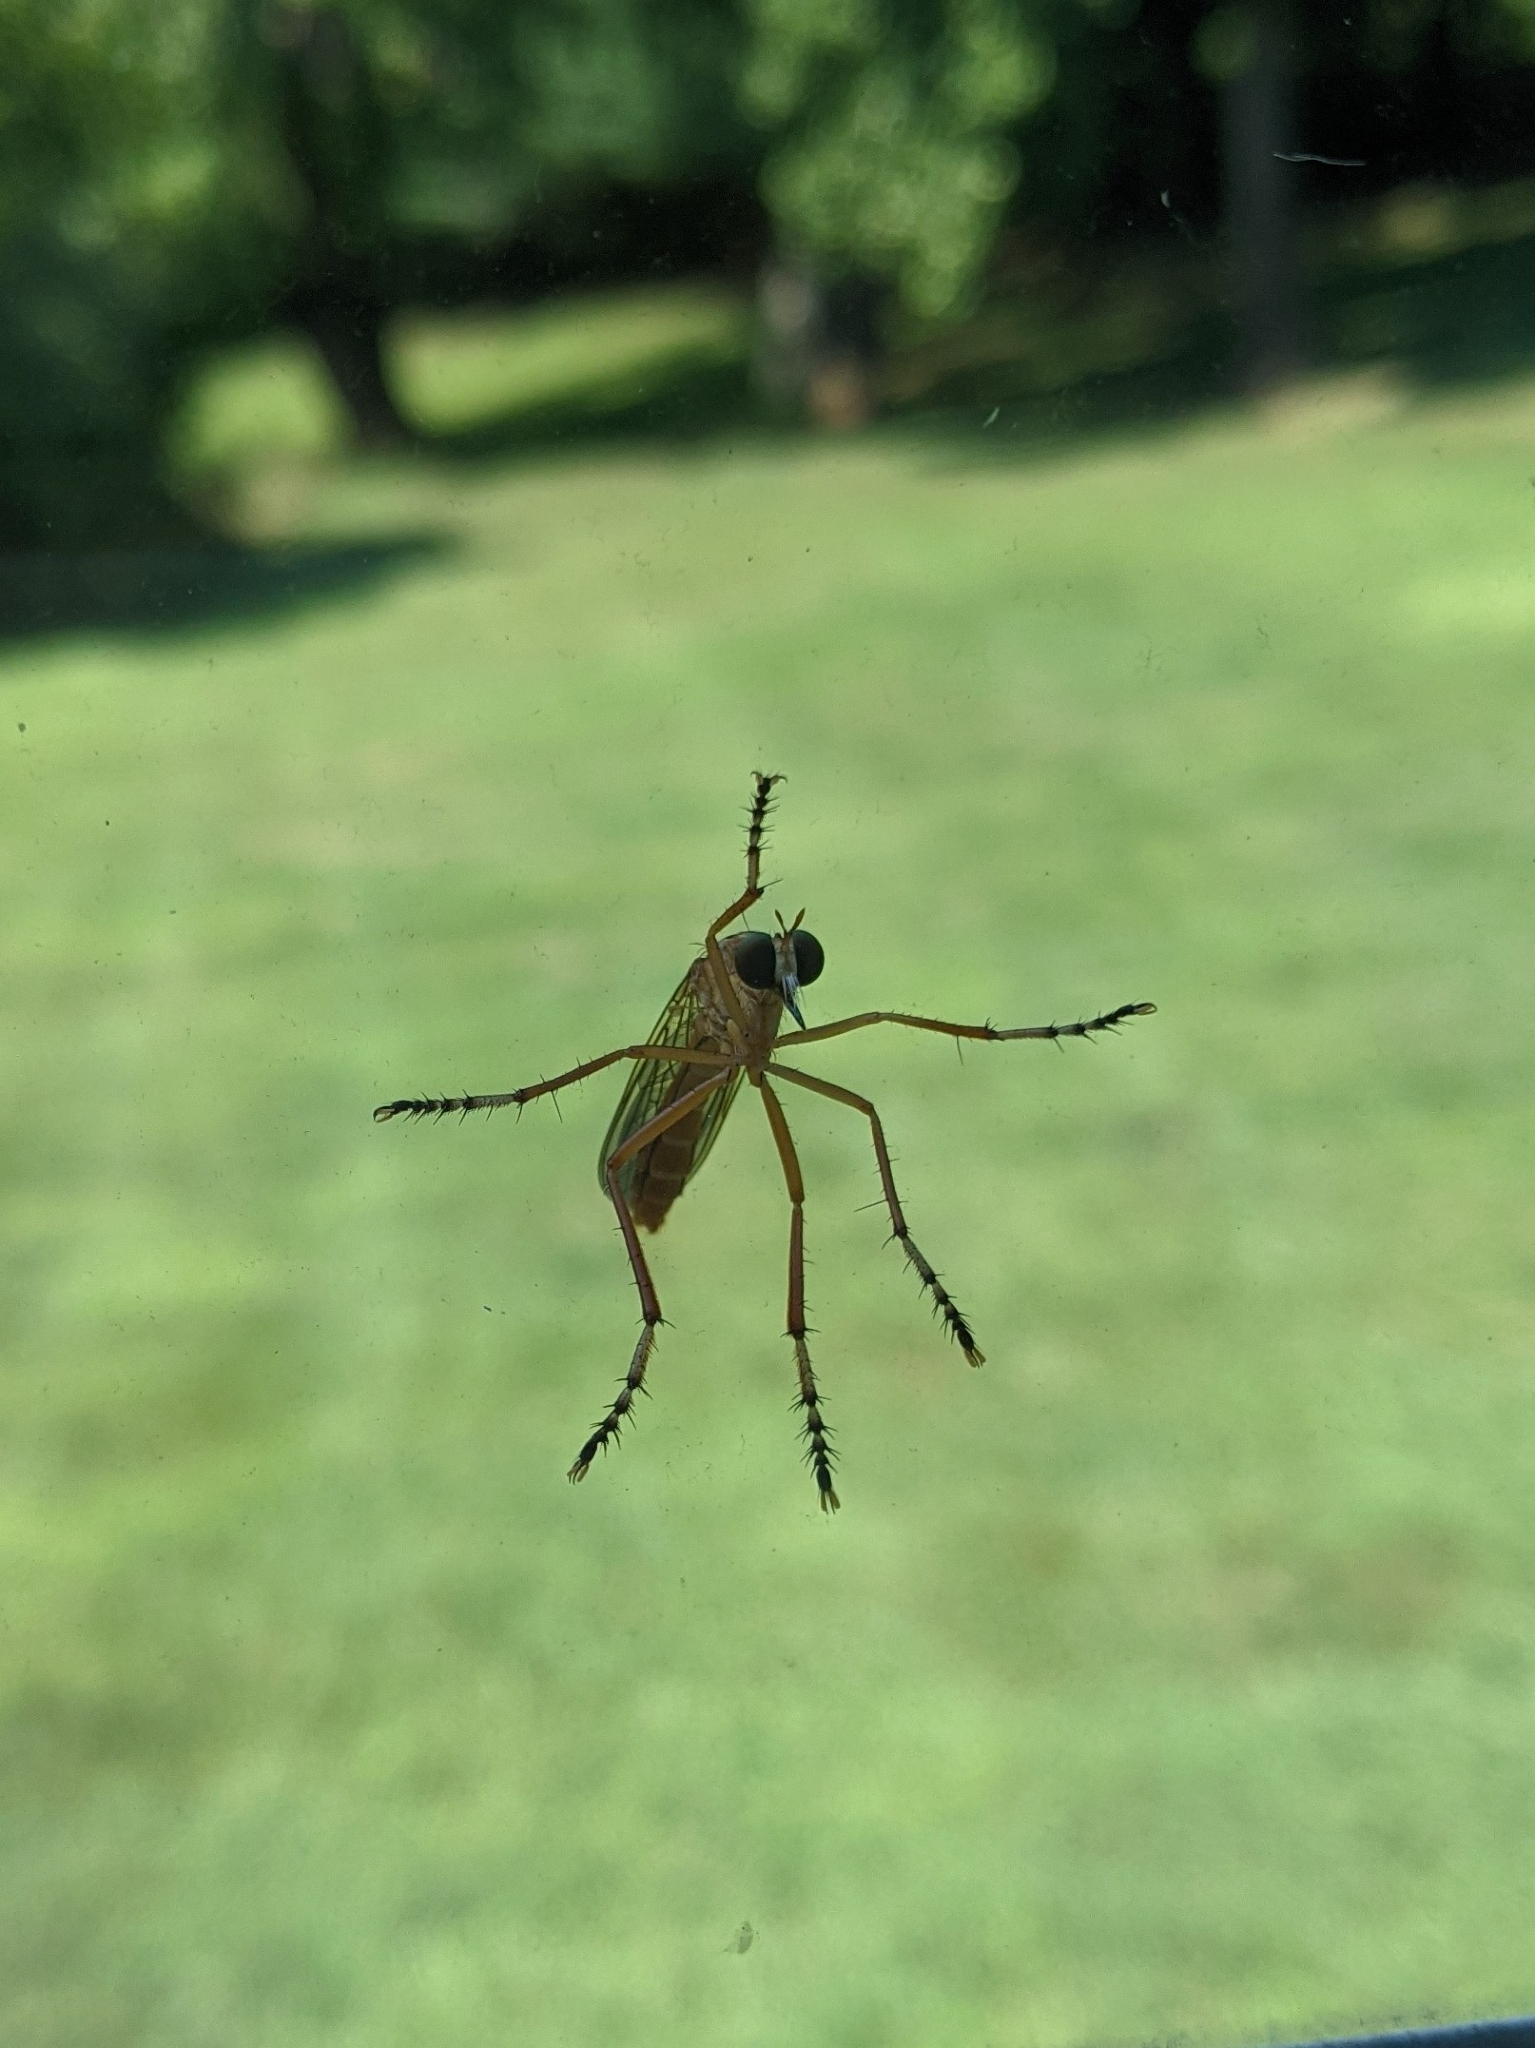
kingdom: Animalia
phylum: Arthropoda
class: Insecta
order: Diptera
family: Asilidae
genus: Diogmites
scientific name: Diogmites neoternatus
